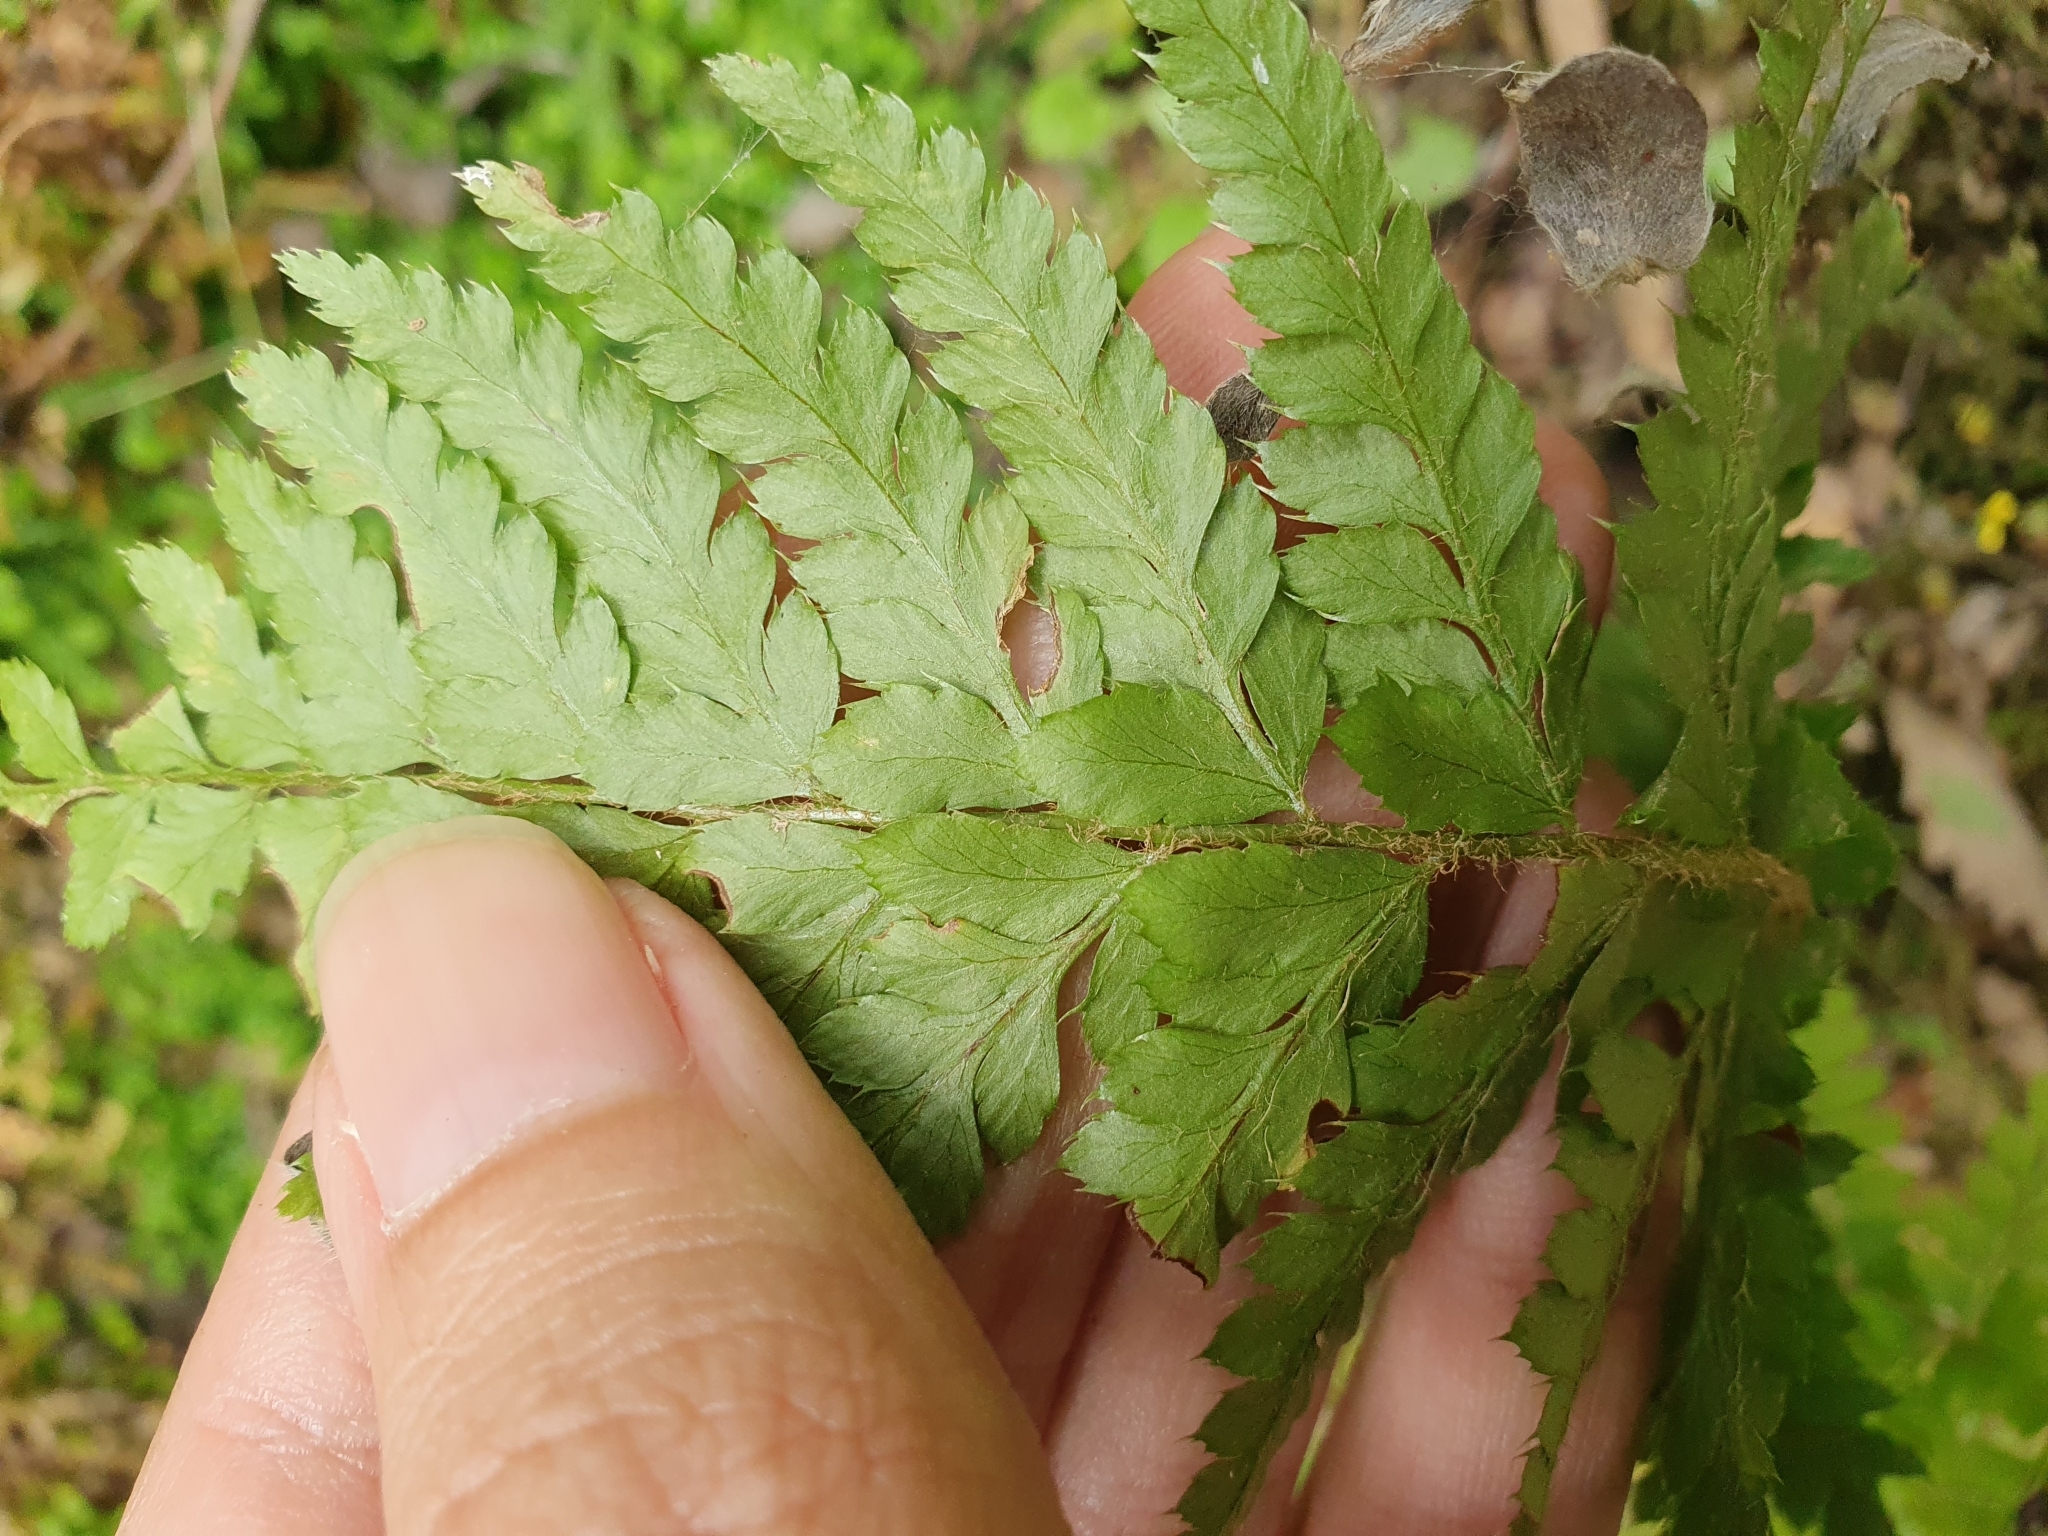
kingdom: Plantae
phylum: Tracheophyta
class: Polypodiopsida
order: Polypodiales
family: Dryopteridaceae
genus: Polystichum
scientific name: Polystichum setiferum
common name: Soft shield-fern
